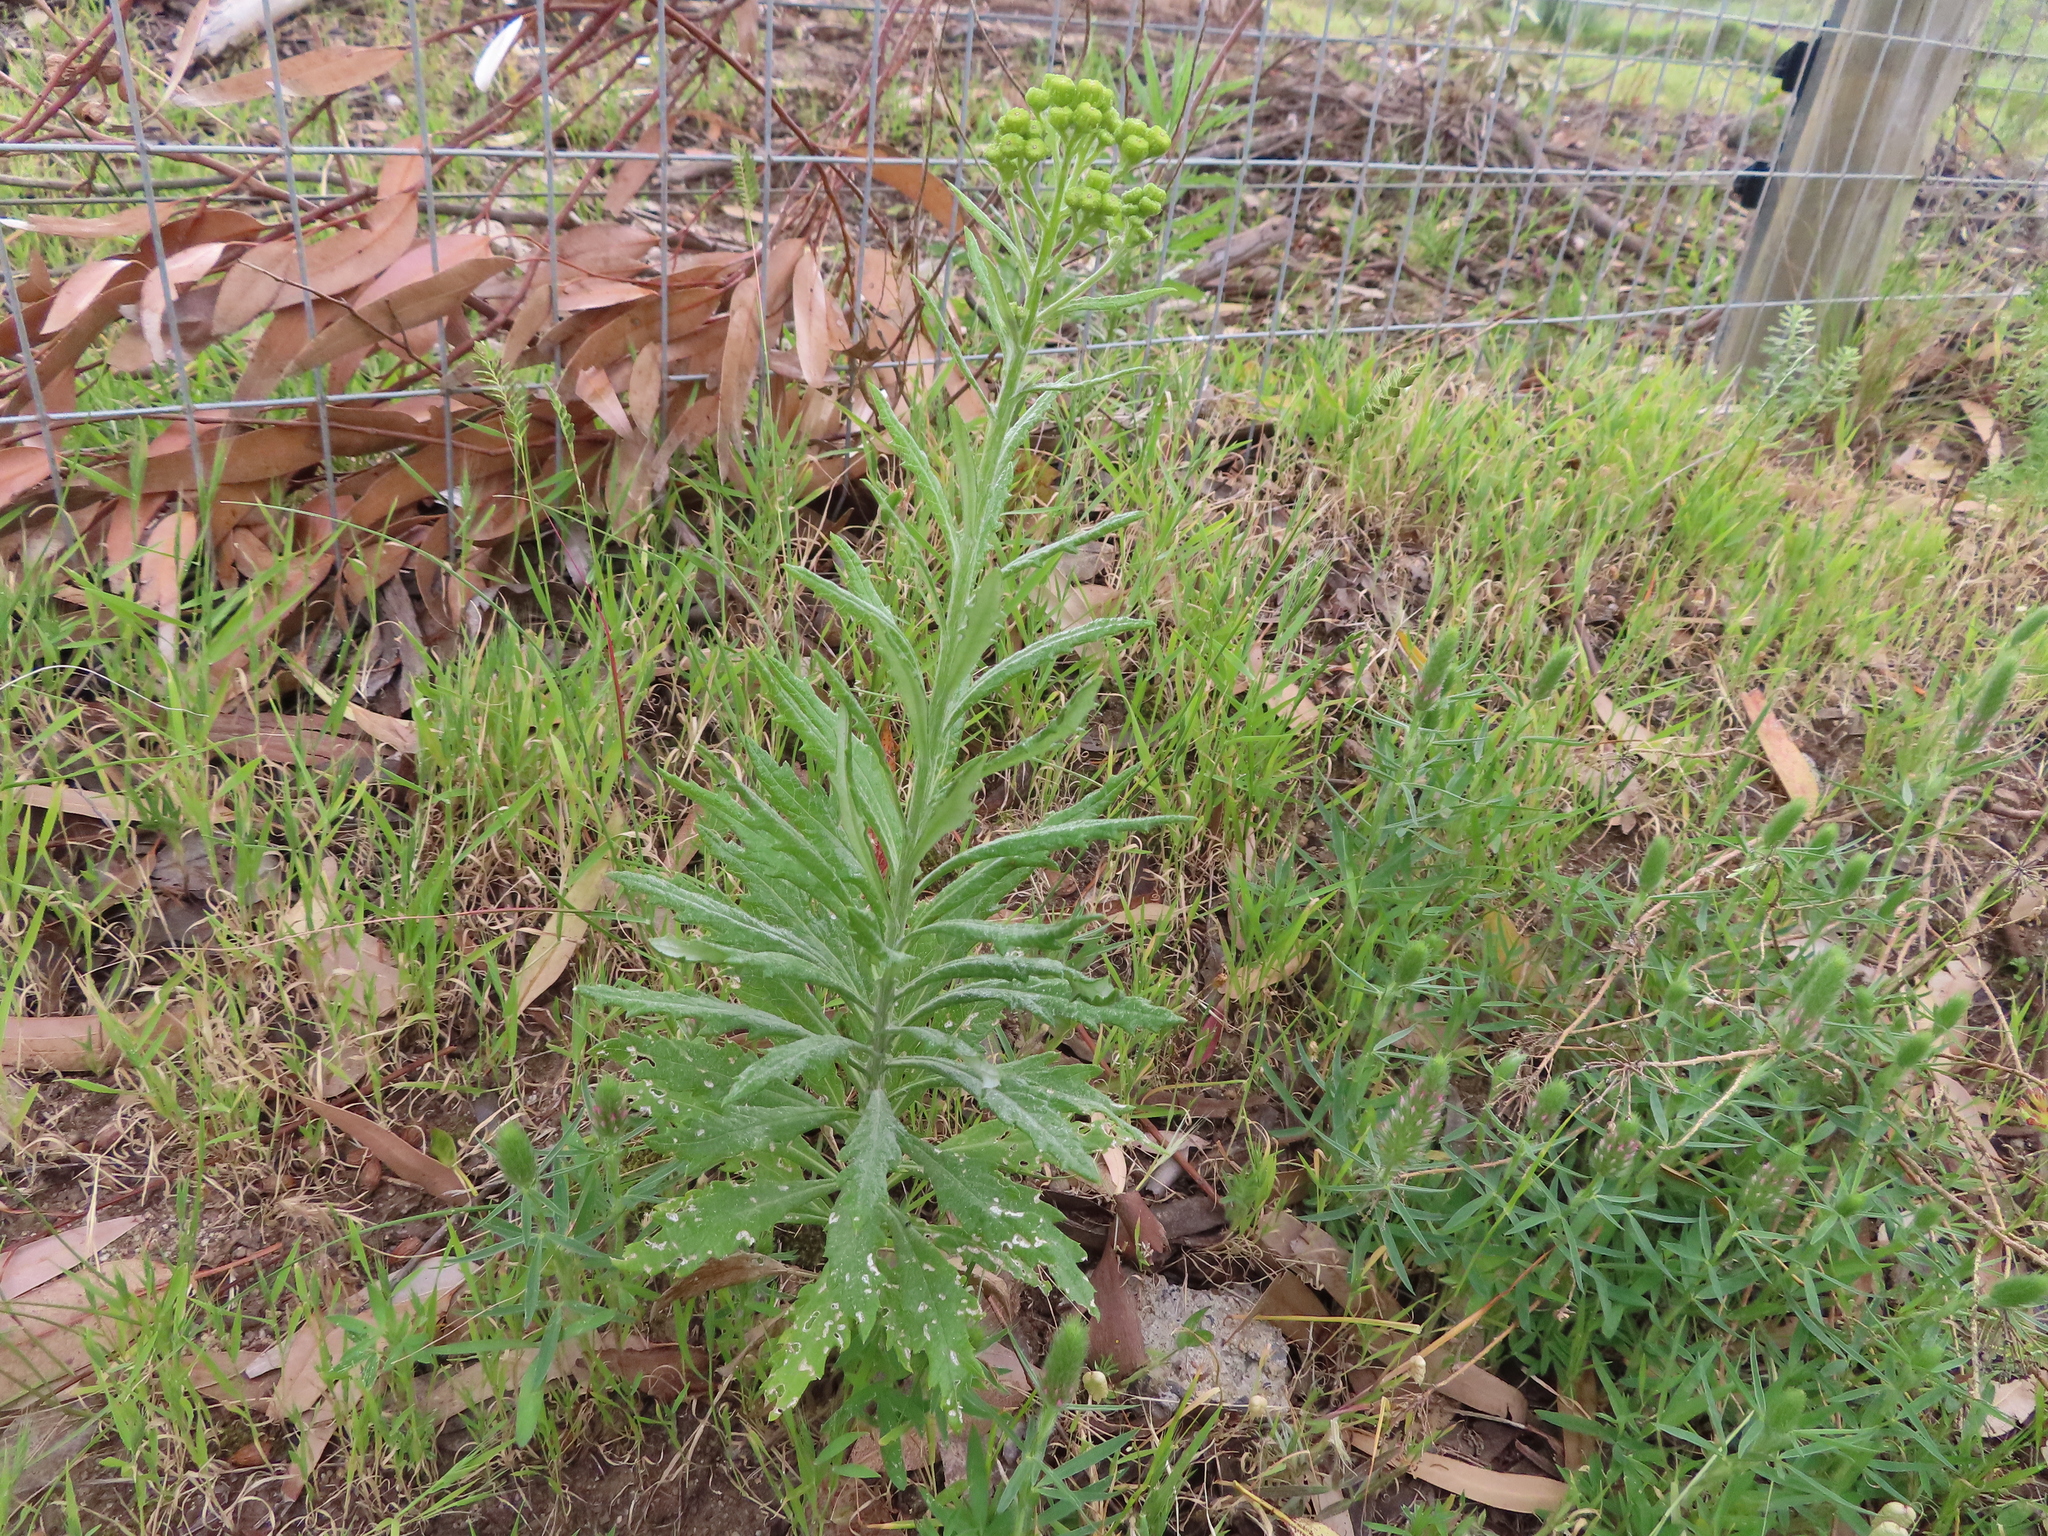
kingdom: Plantae
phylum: Tracheophyta
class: Magnoliopsida
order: Asterales
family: Asteraceae
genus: Senecio
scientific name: Senecio pterophorus
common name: Shoddy ragwort
